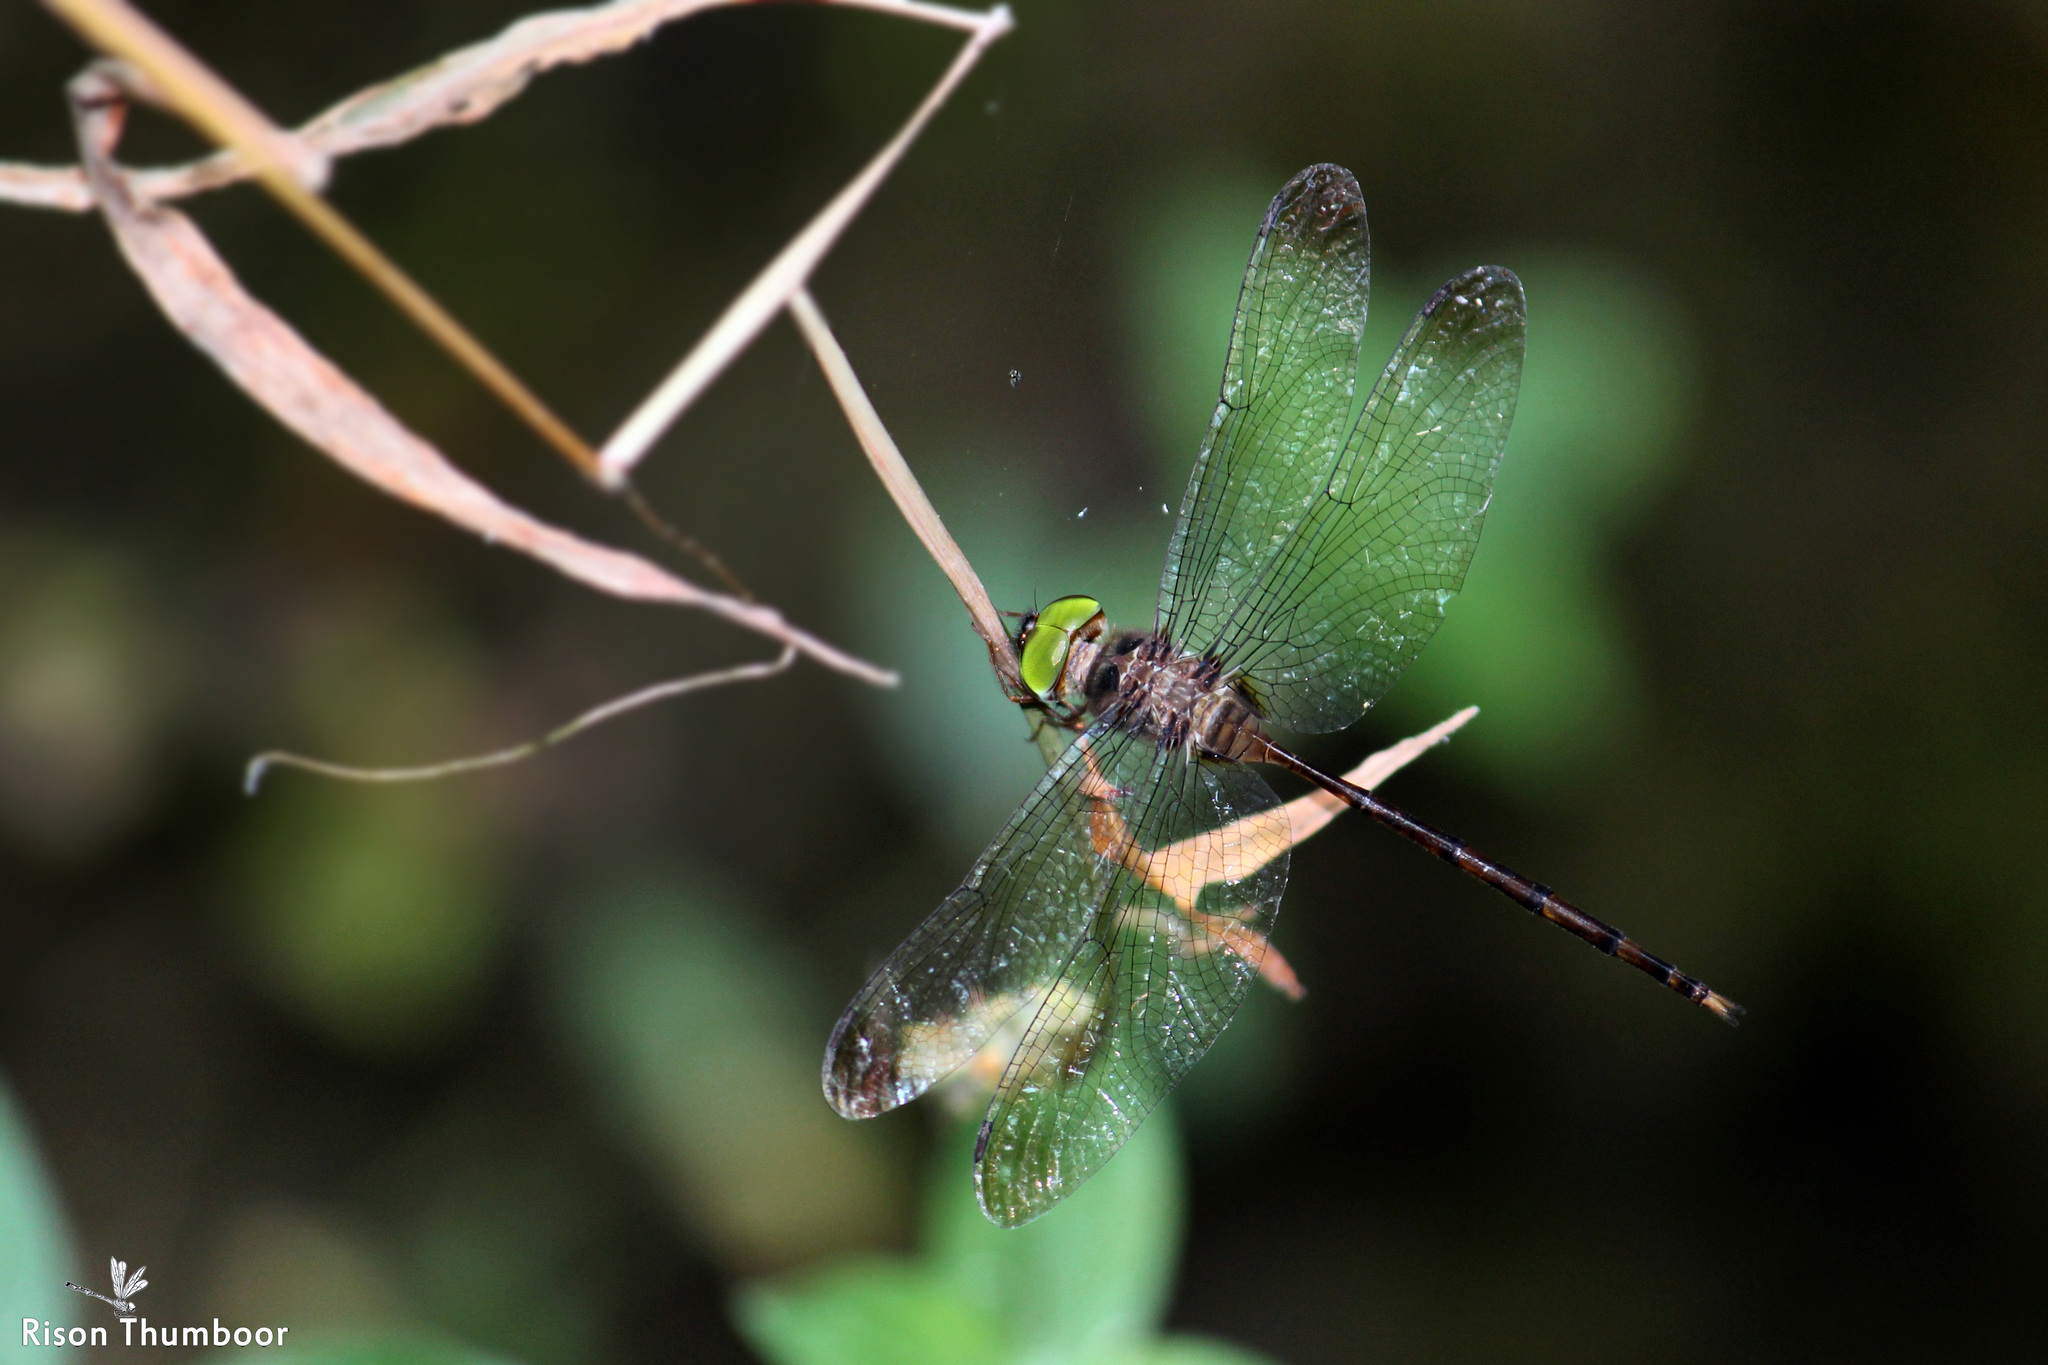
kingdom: Animalia
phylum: Arthropoda
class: Insecta
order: Odonata
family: Libellulidae
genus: Zyxomma
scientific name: Zyxomma petiolatum
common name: Dingy dusk-darter
